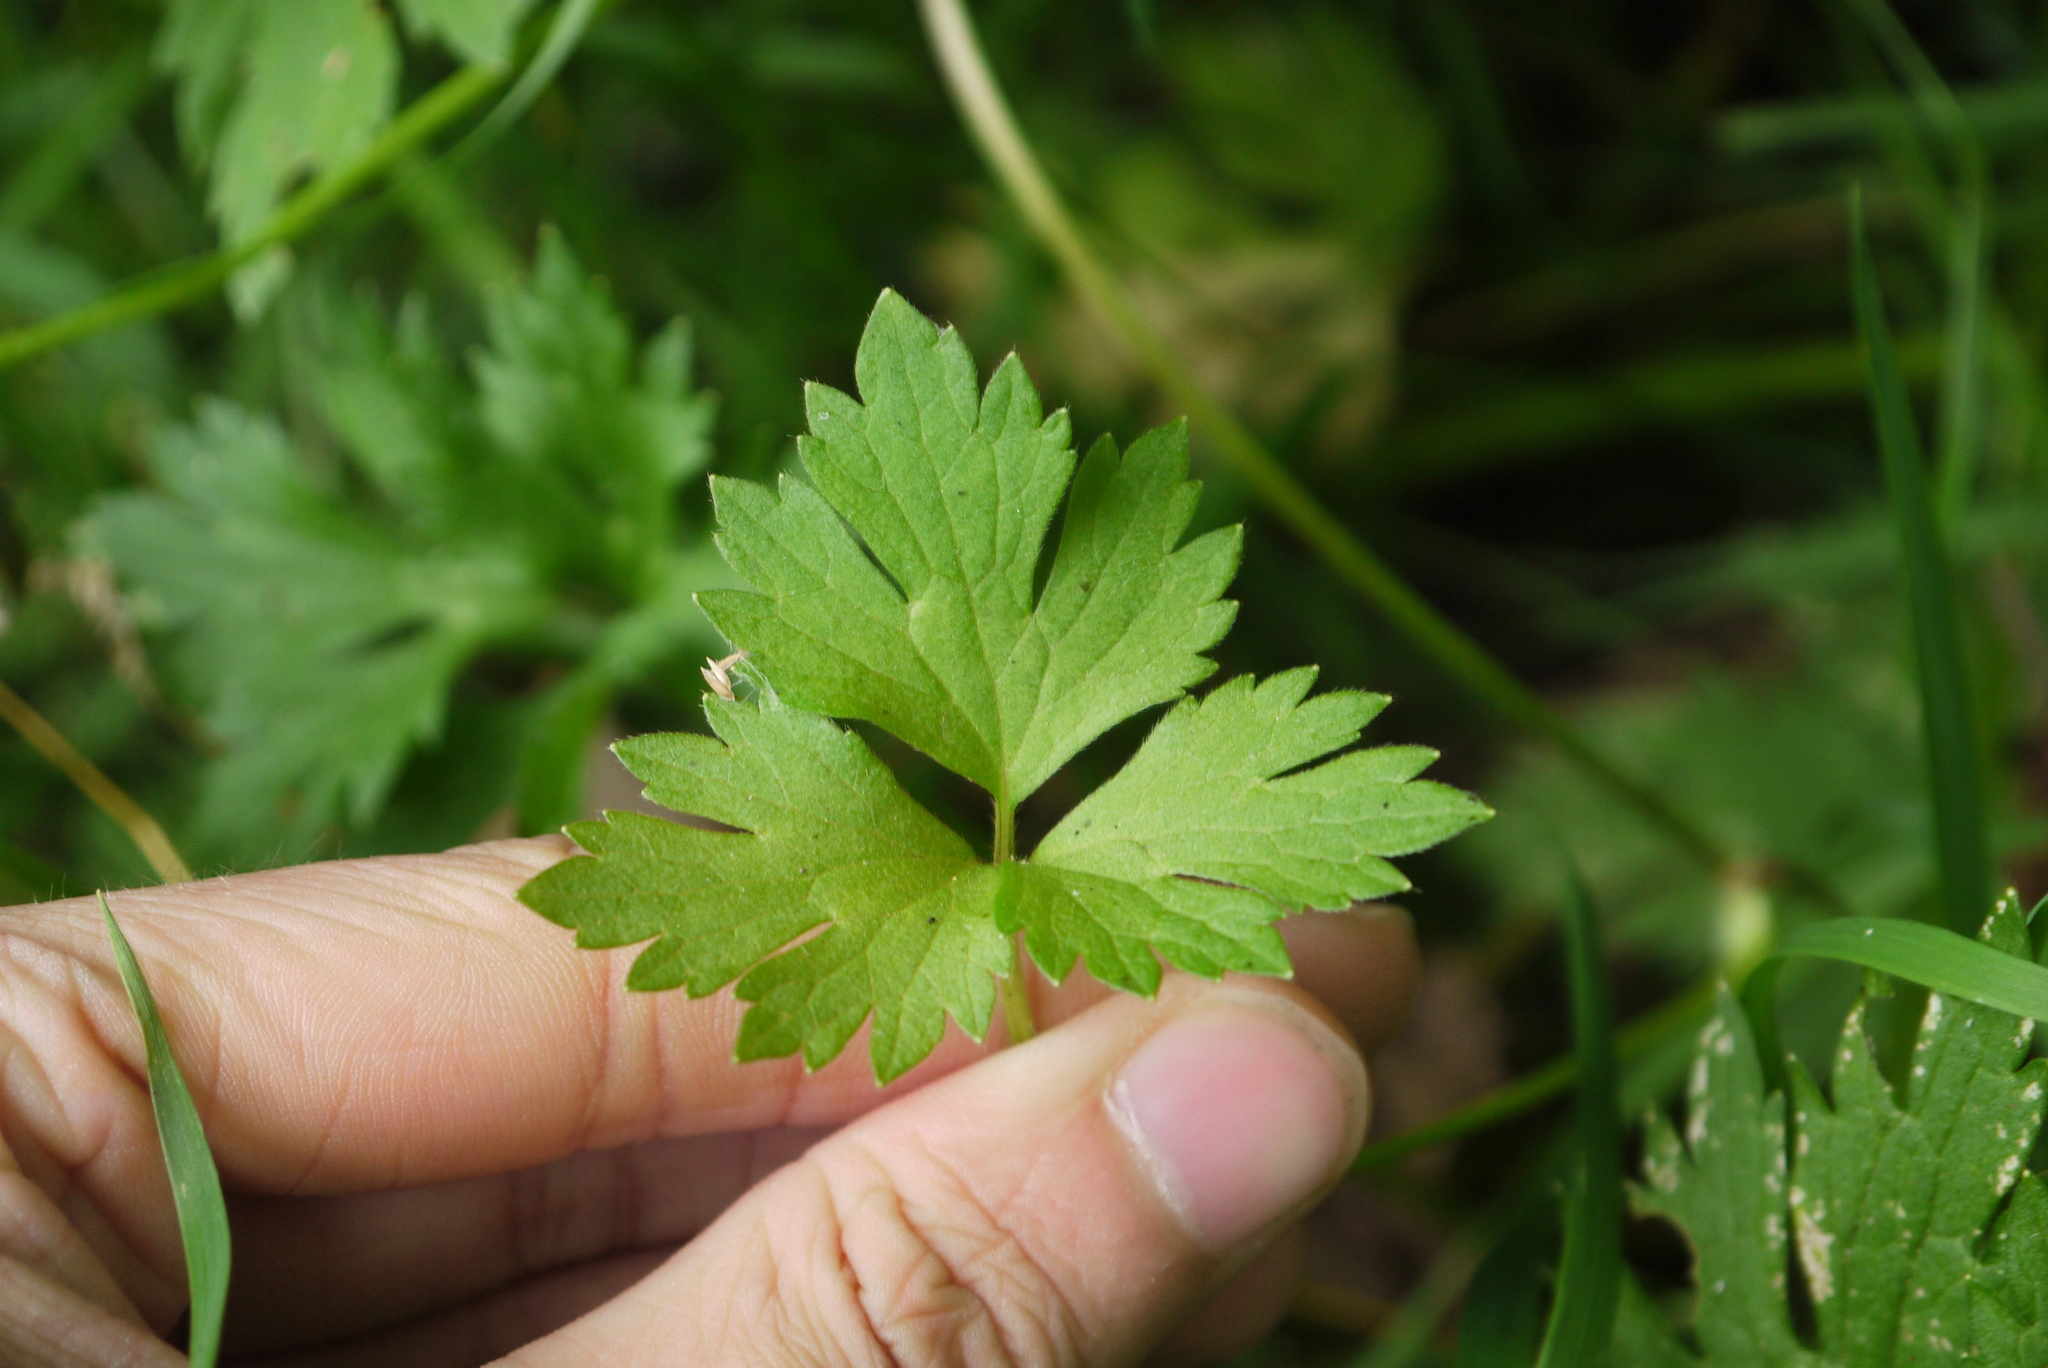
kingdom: Plantae
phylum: Tracheophyta
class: Magnoliopsida
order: Ranunculales
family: Ranunculaceae
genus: Ranunculus
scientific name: Ranunculus repens
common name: Creeping buttercup
